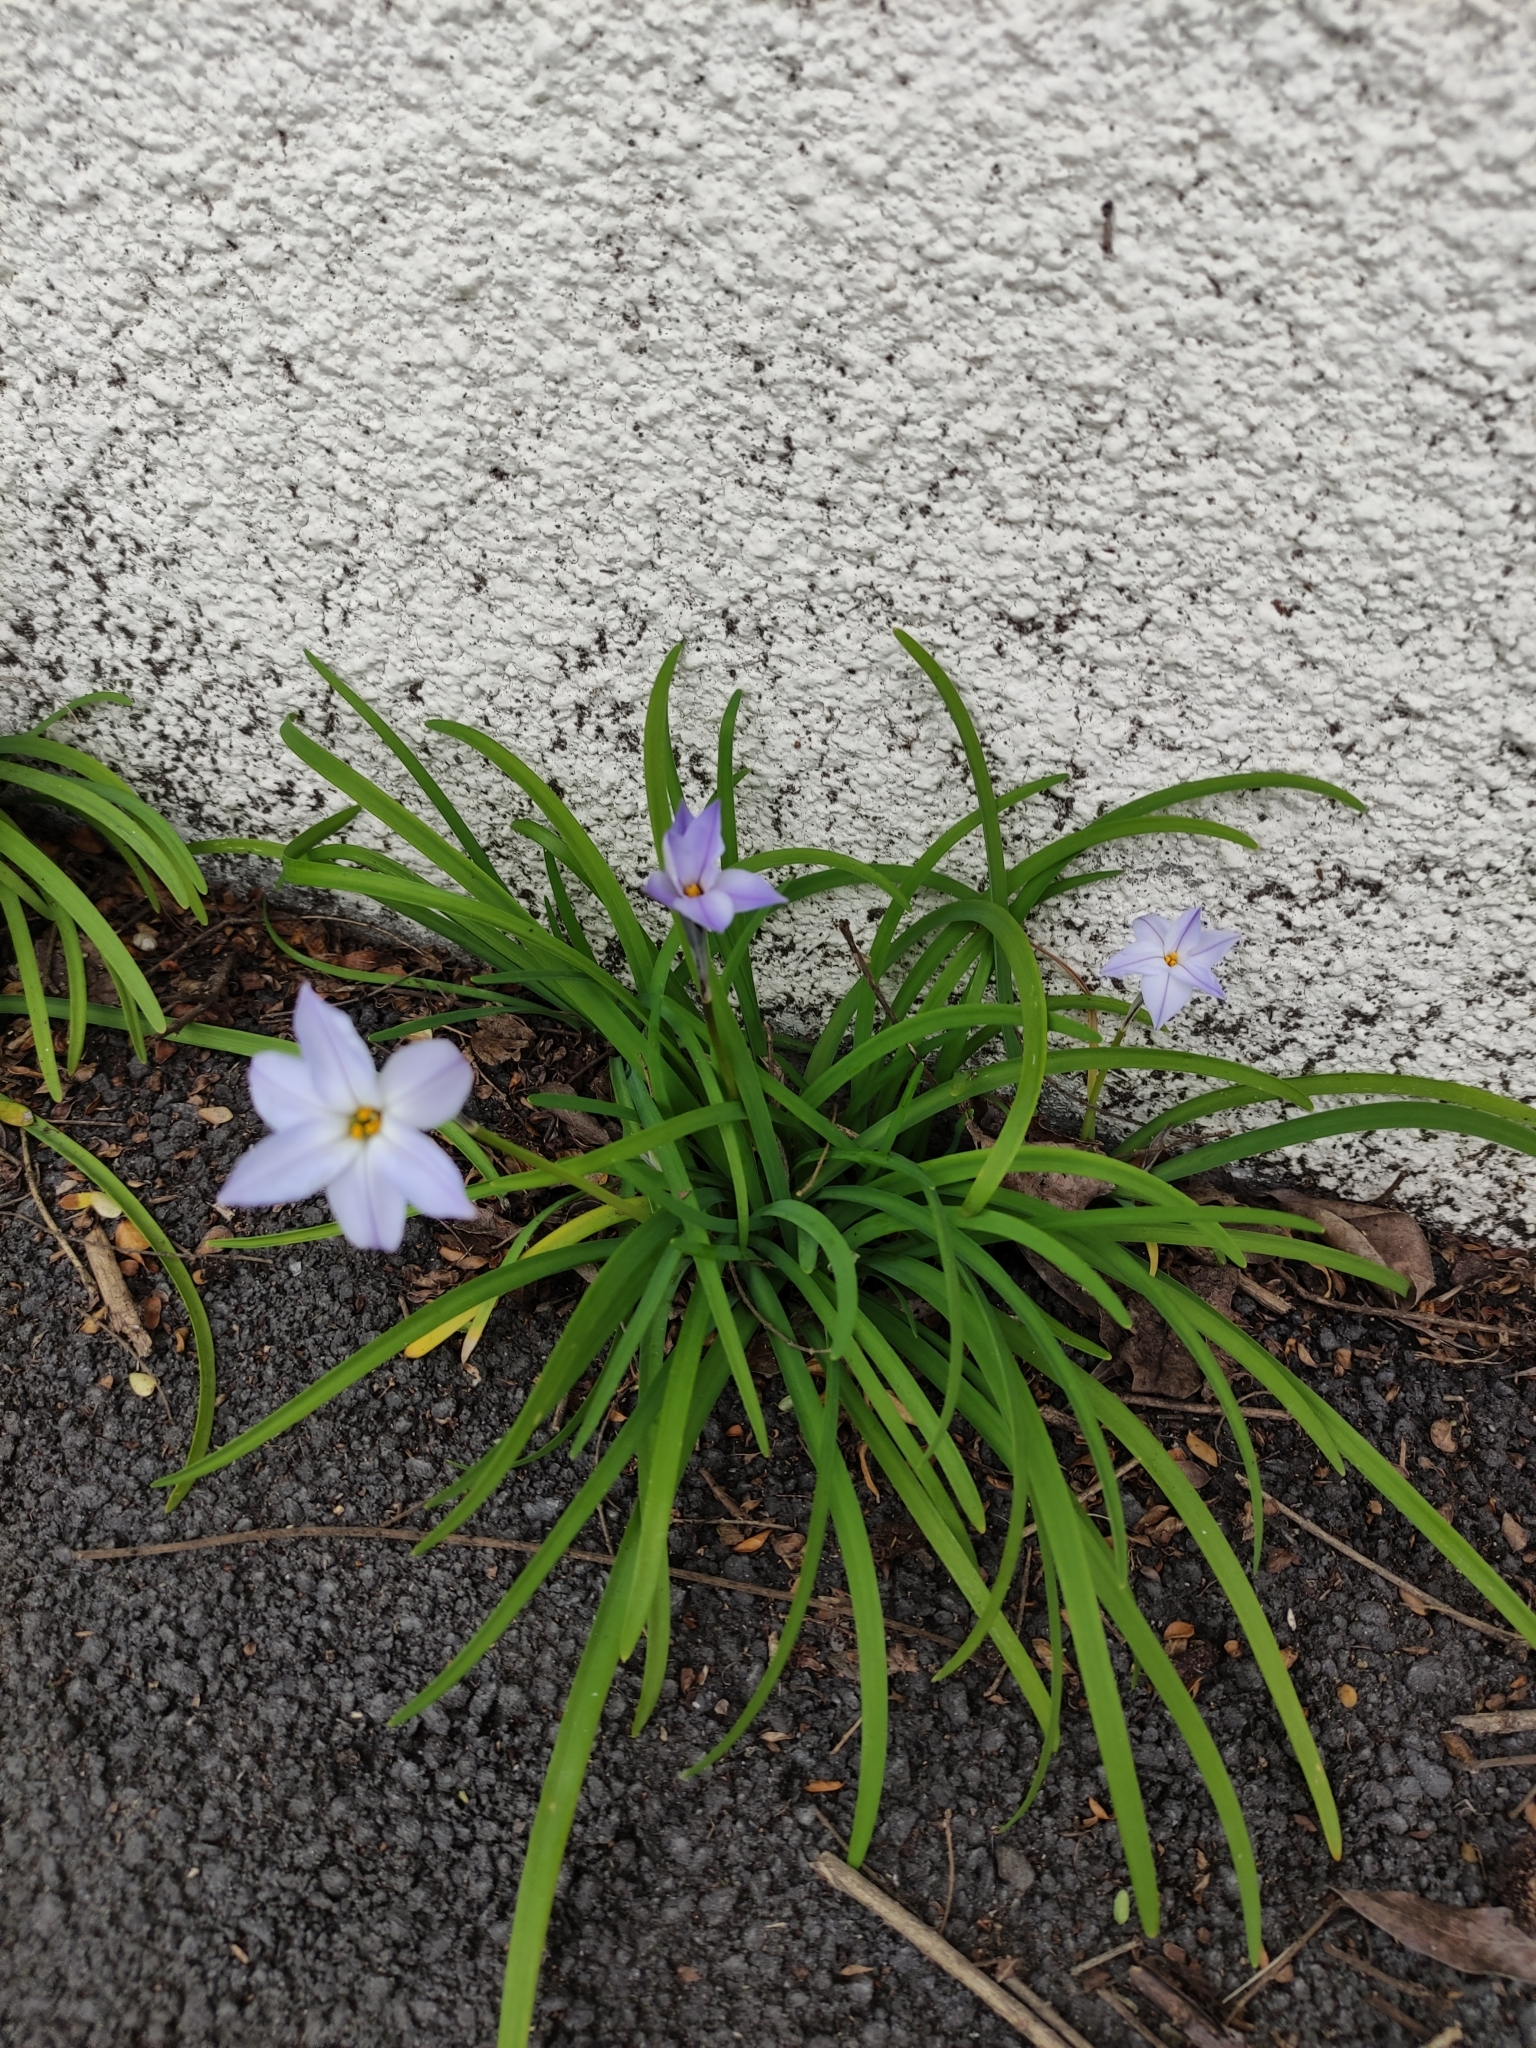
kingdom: Plantae
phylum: Tracheophyta
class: Liliopsida
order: Asparagales
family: Amaryllidaceae
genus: Ipheion
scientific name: Ipheion uniflorum
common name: Spring starflower
